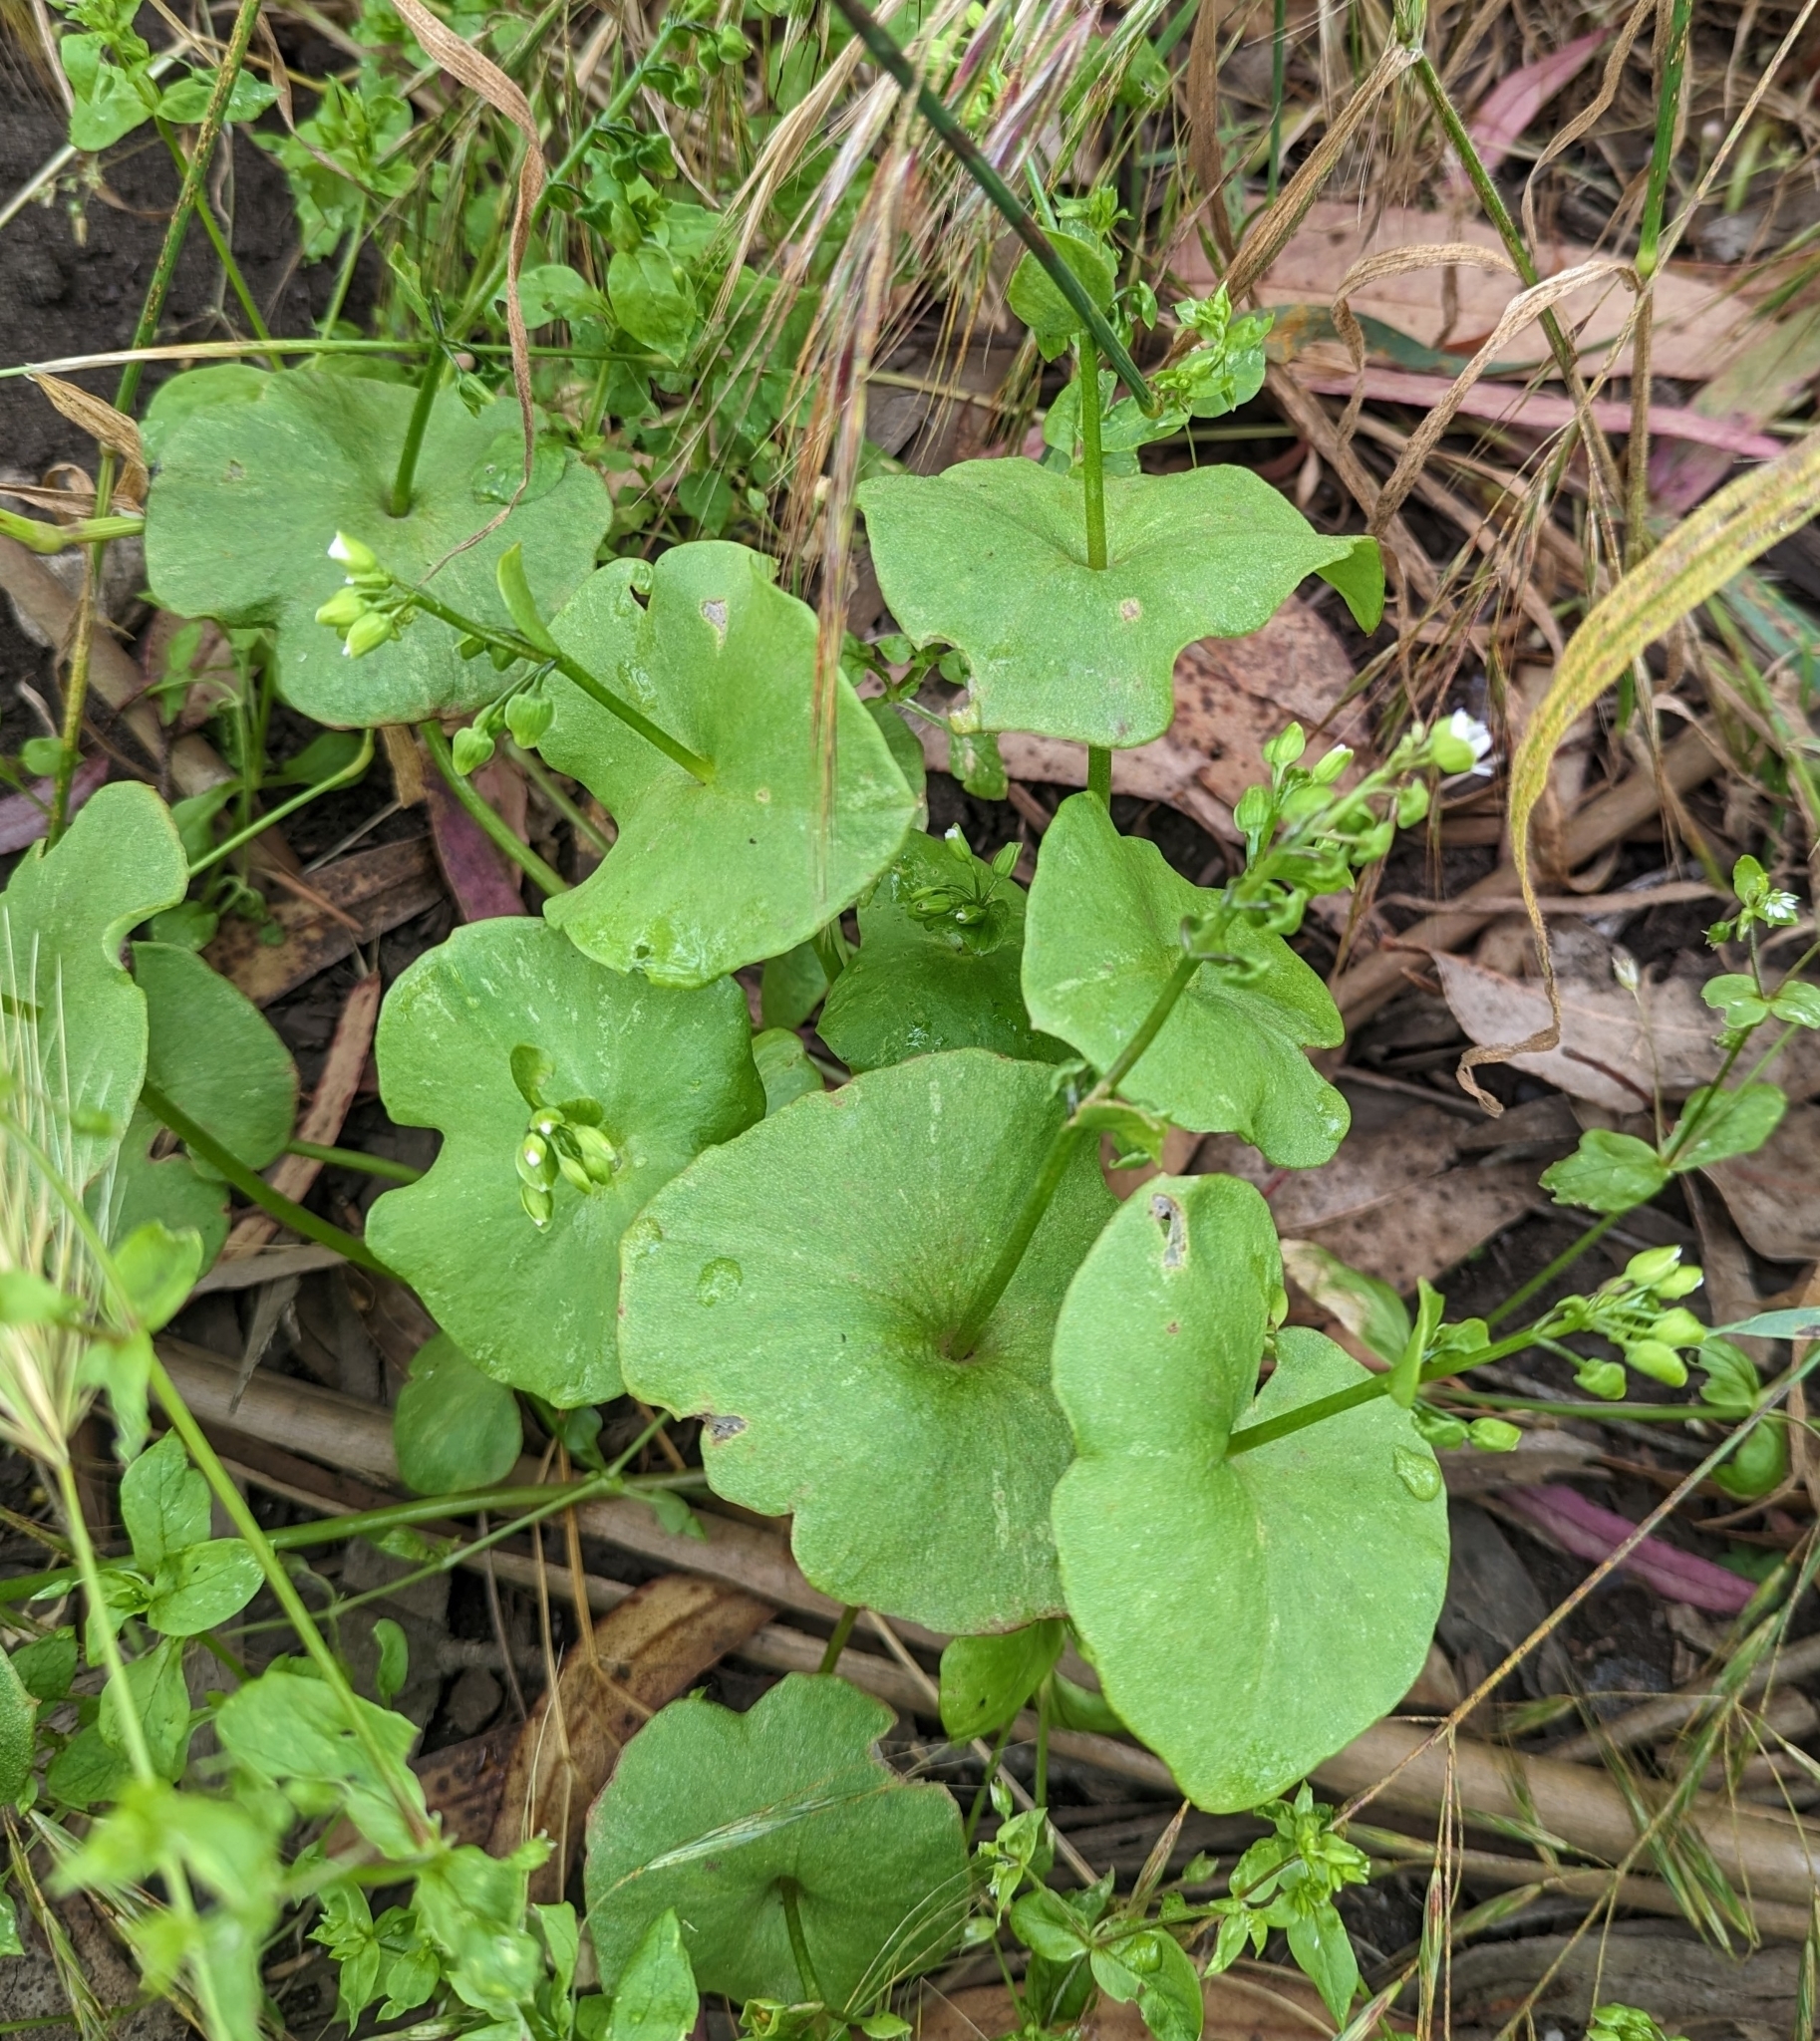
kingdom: Plantae
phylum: Tracheophyta
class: Magnoliopsida
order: Caryophyllales
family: Montiaceae
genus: Claytonia
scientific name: Claytonia perfoliata
